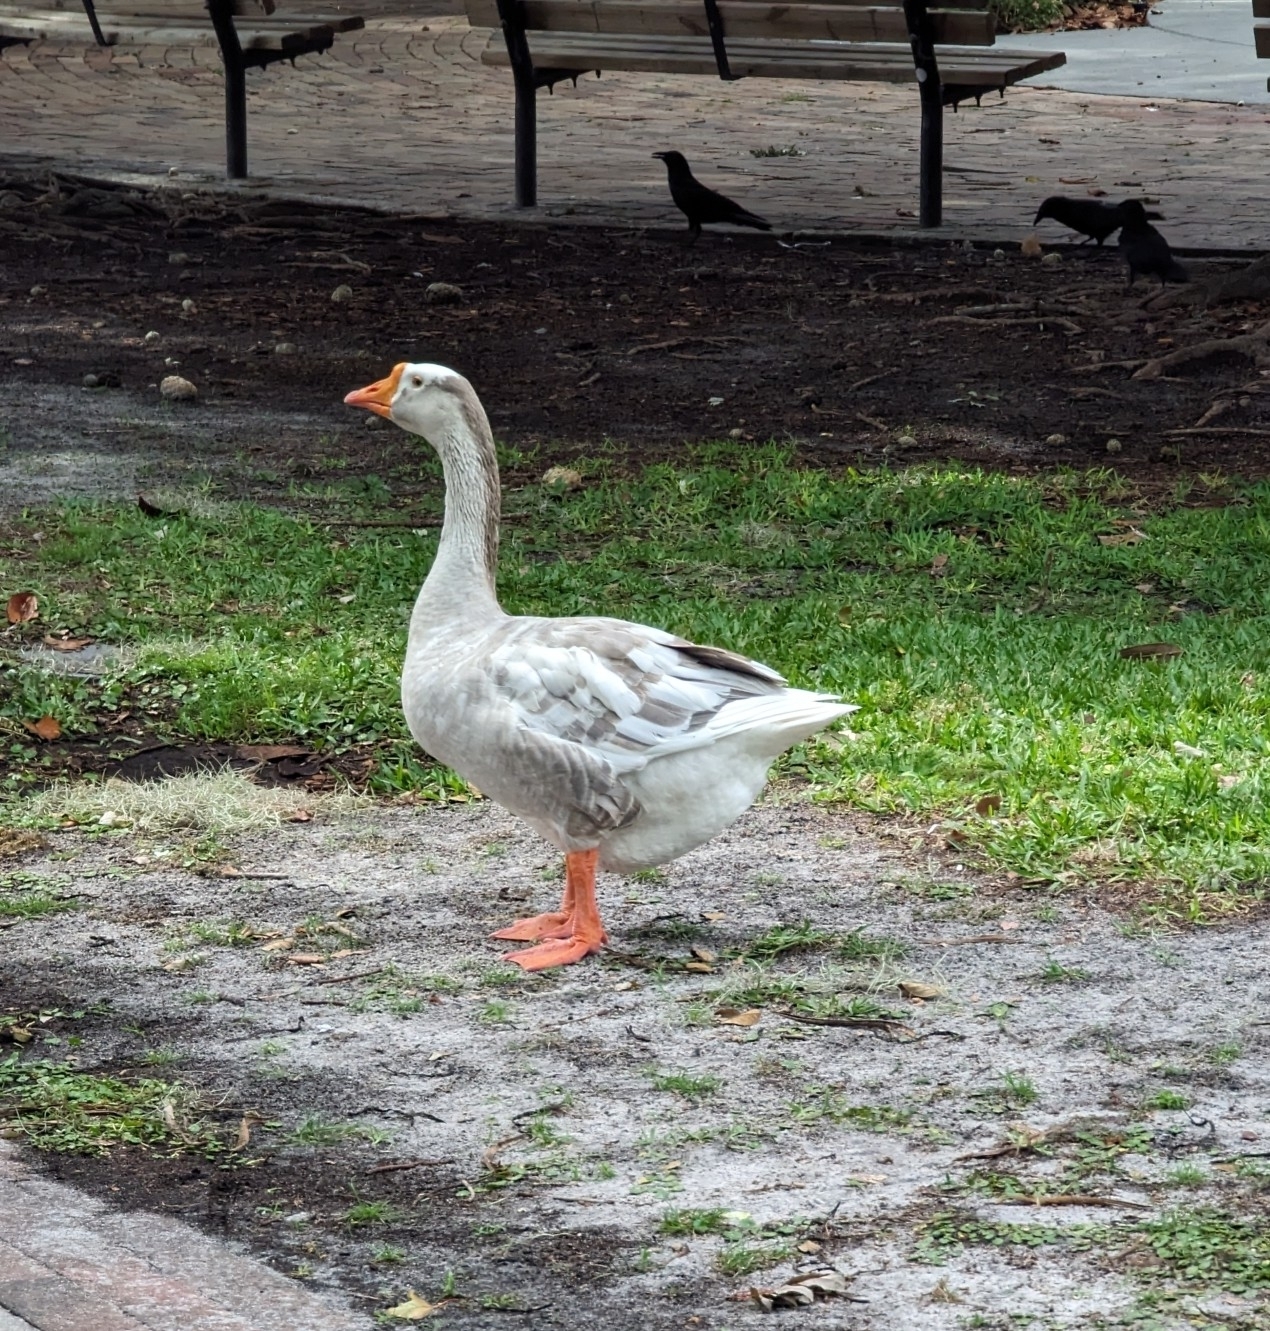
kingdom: Animalia
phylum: Chordata
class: Aves
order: Anseriformes
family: Anatidae
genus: Anser
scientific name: Anser
